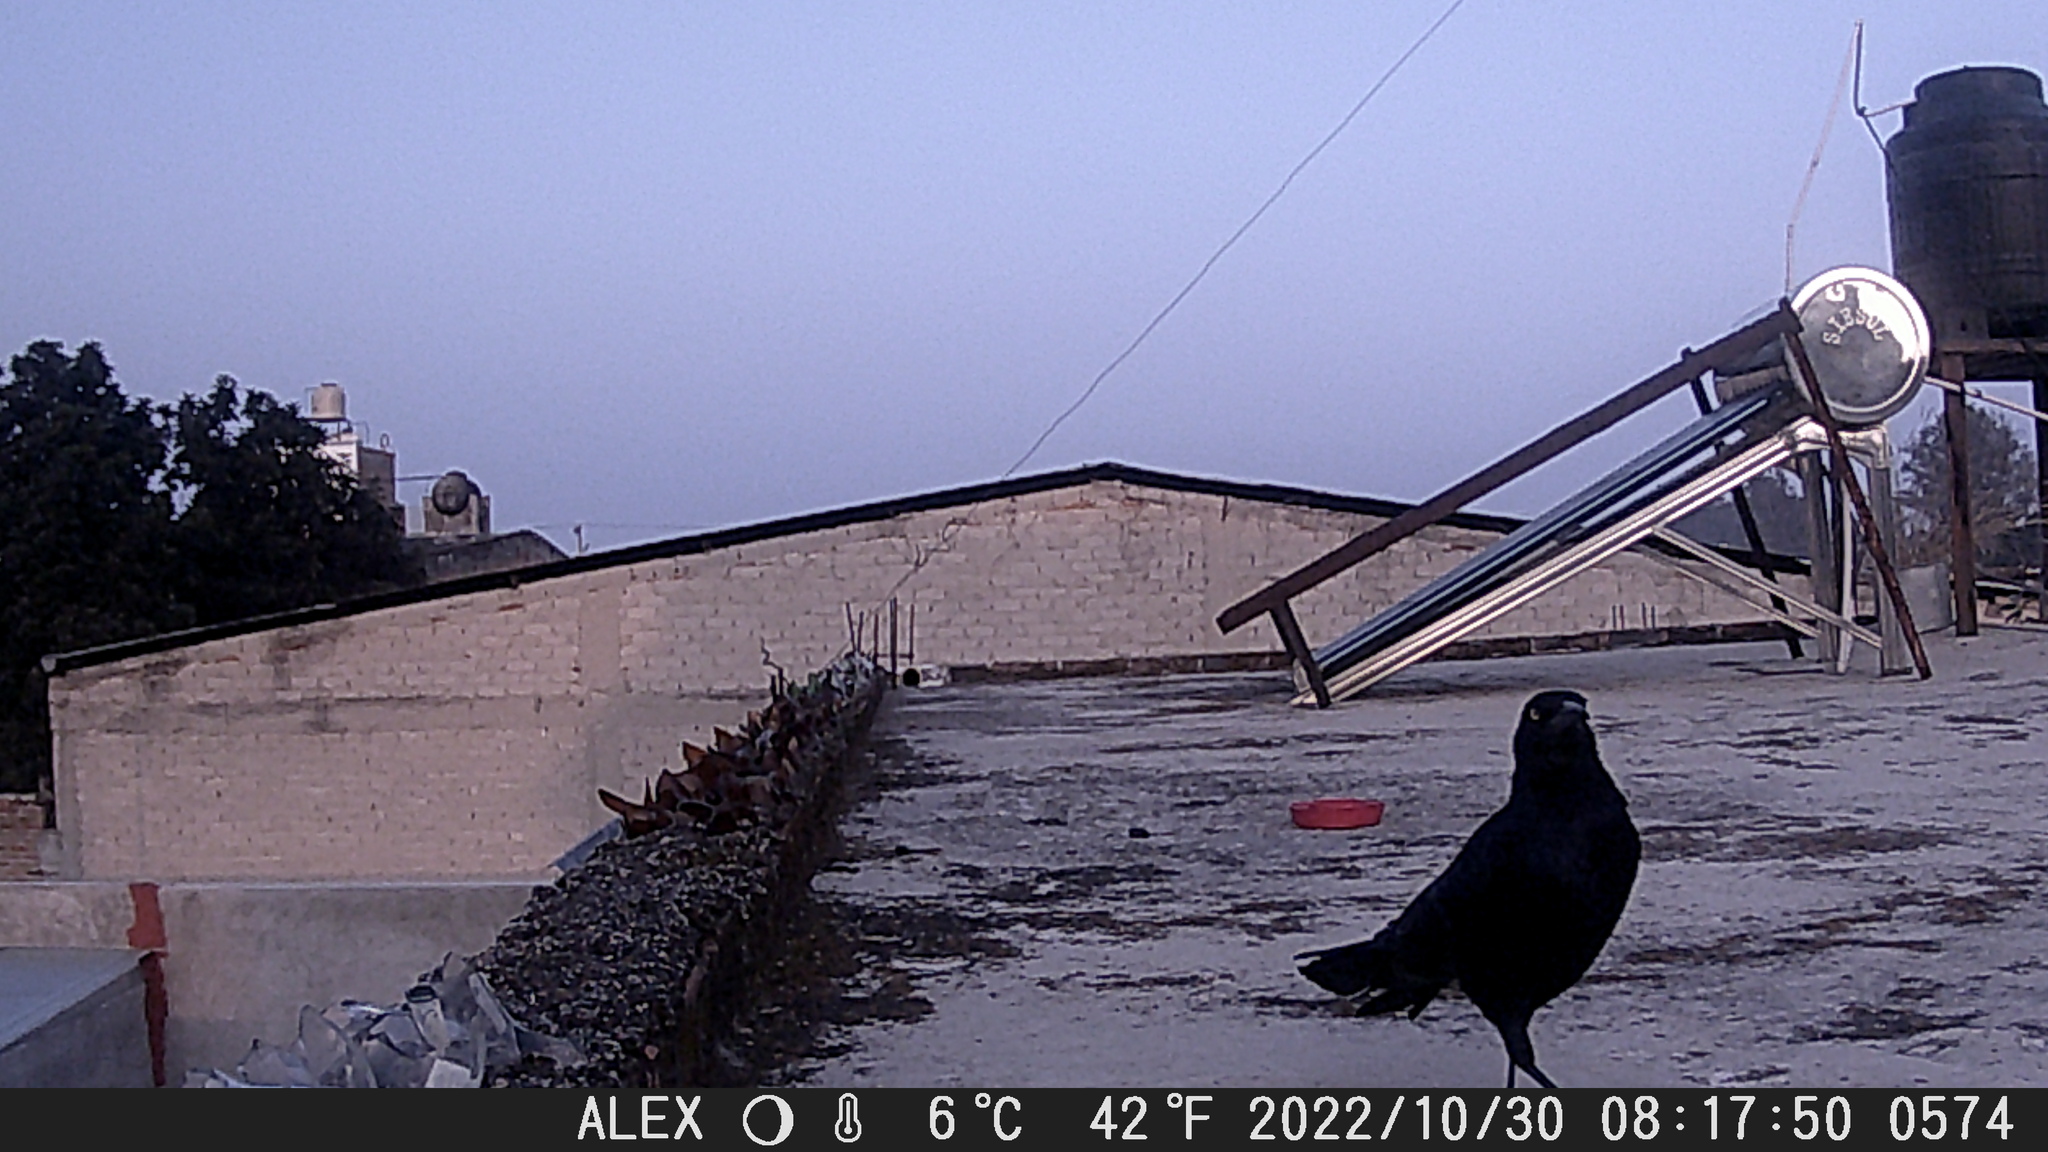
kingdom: Animalia
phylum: Chordata
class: Aves
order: Passeriformes
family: Icteridae
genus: Quiscalus
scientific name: Quiscalus mexicanus
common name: Great-tailed grackle
